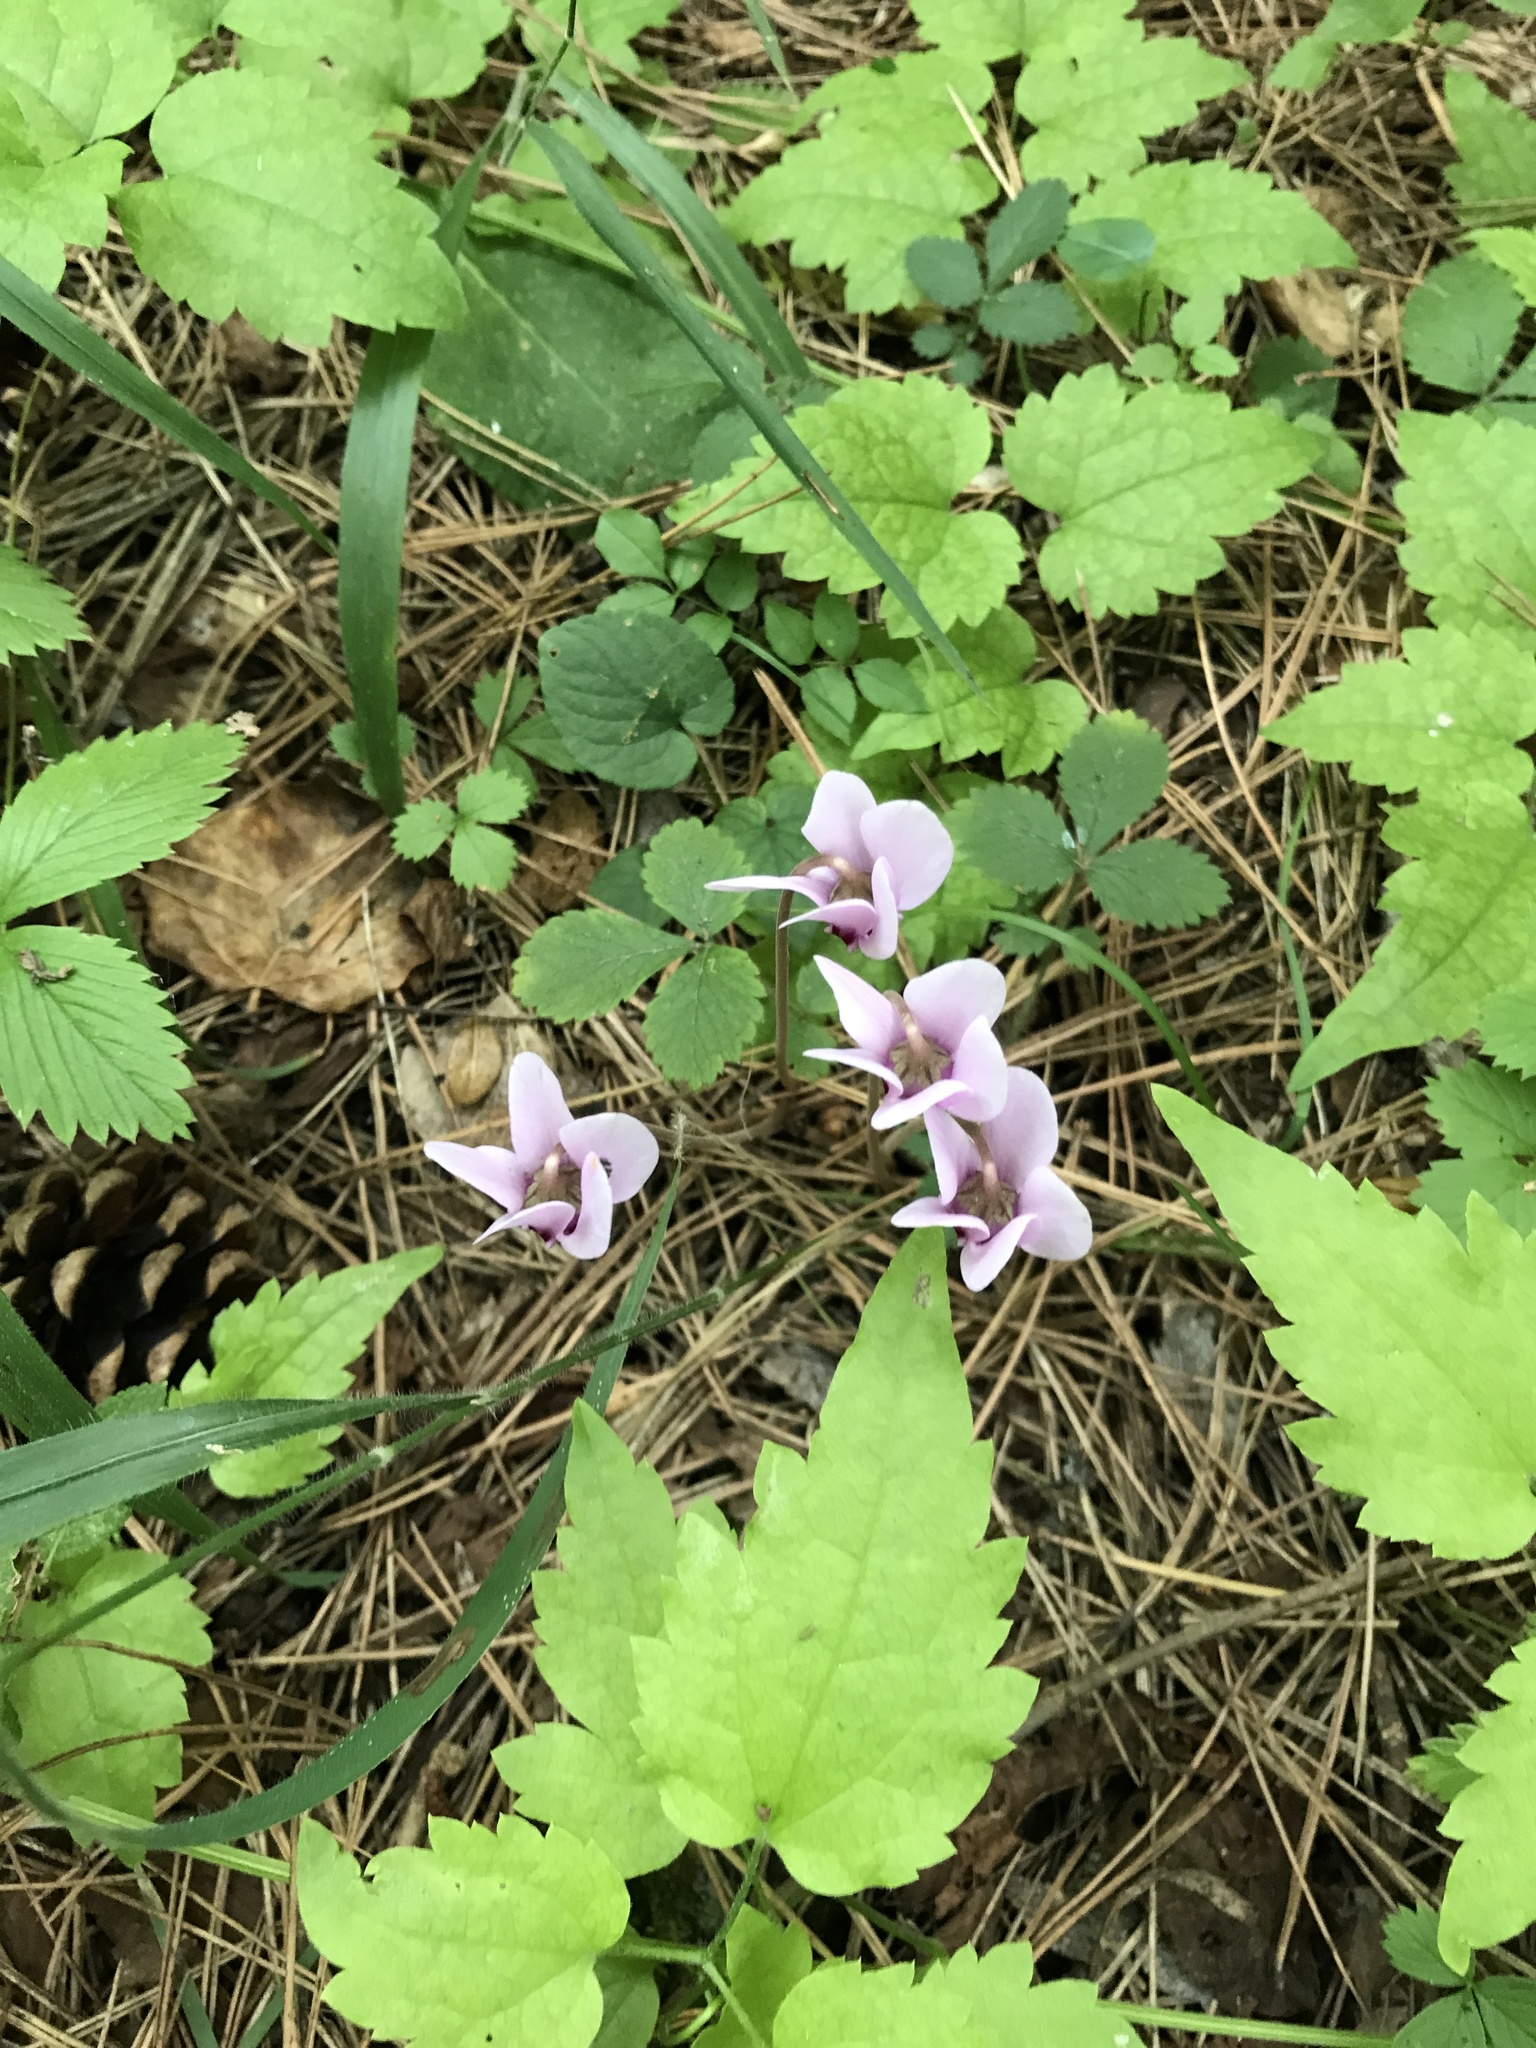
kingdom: Plantae
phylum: Tracheophyta
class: Magnoliopsida
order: Ericales
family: Primulaceae
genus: Cyclamen
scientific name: Cyclamen hederifolium
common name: Sowbread
